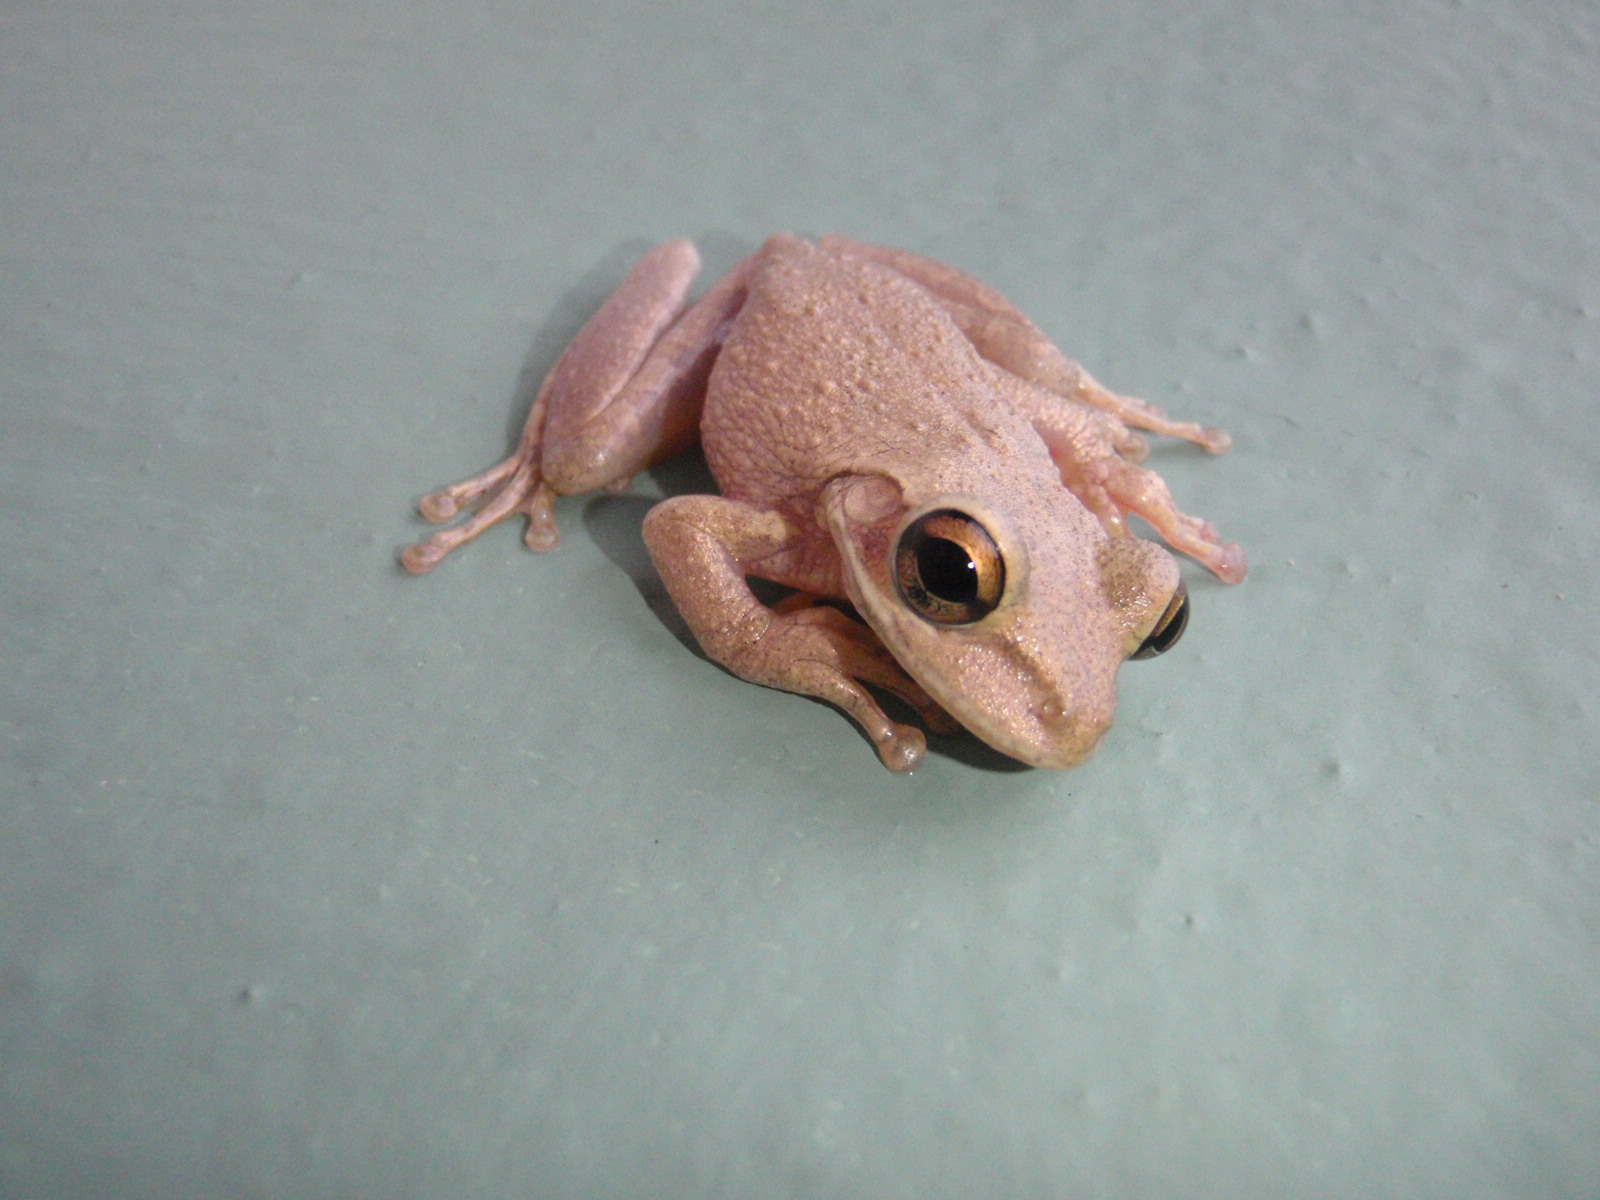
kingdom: Animalia
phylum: Chordata
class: Amphibia
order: Anura
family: Hylidae
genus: Osteopilus
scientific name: Osteopilus septentrionalis
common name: Cuban treefrog
